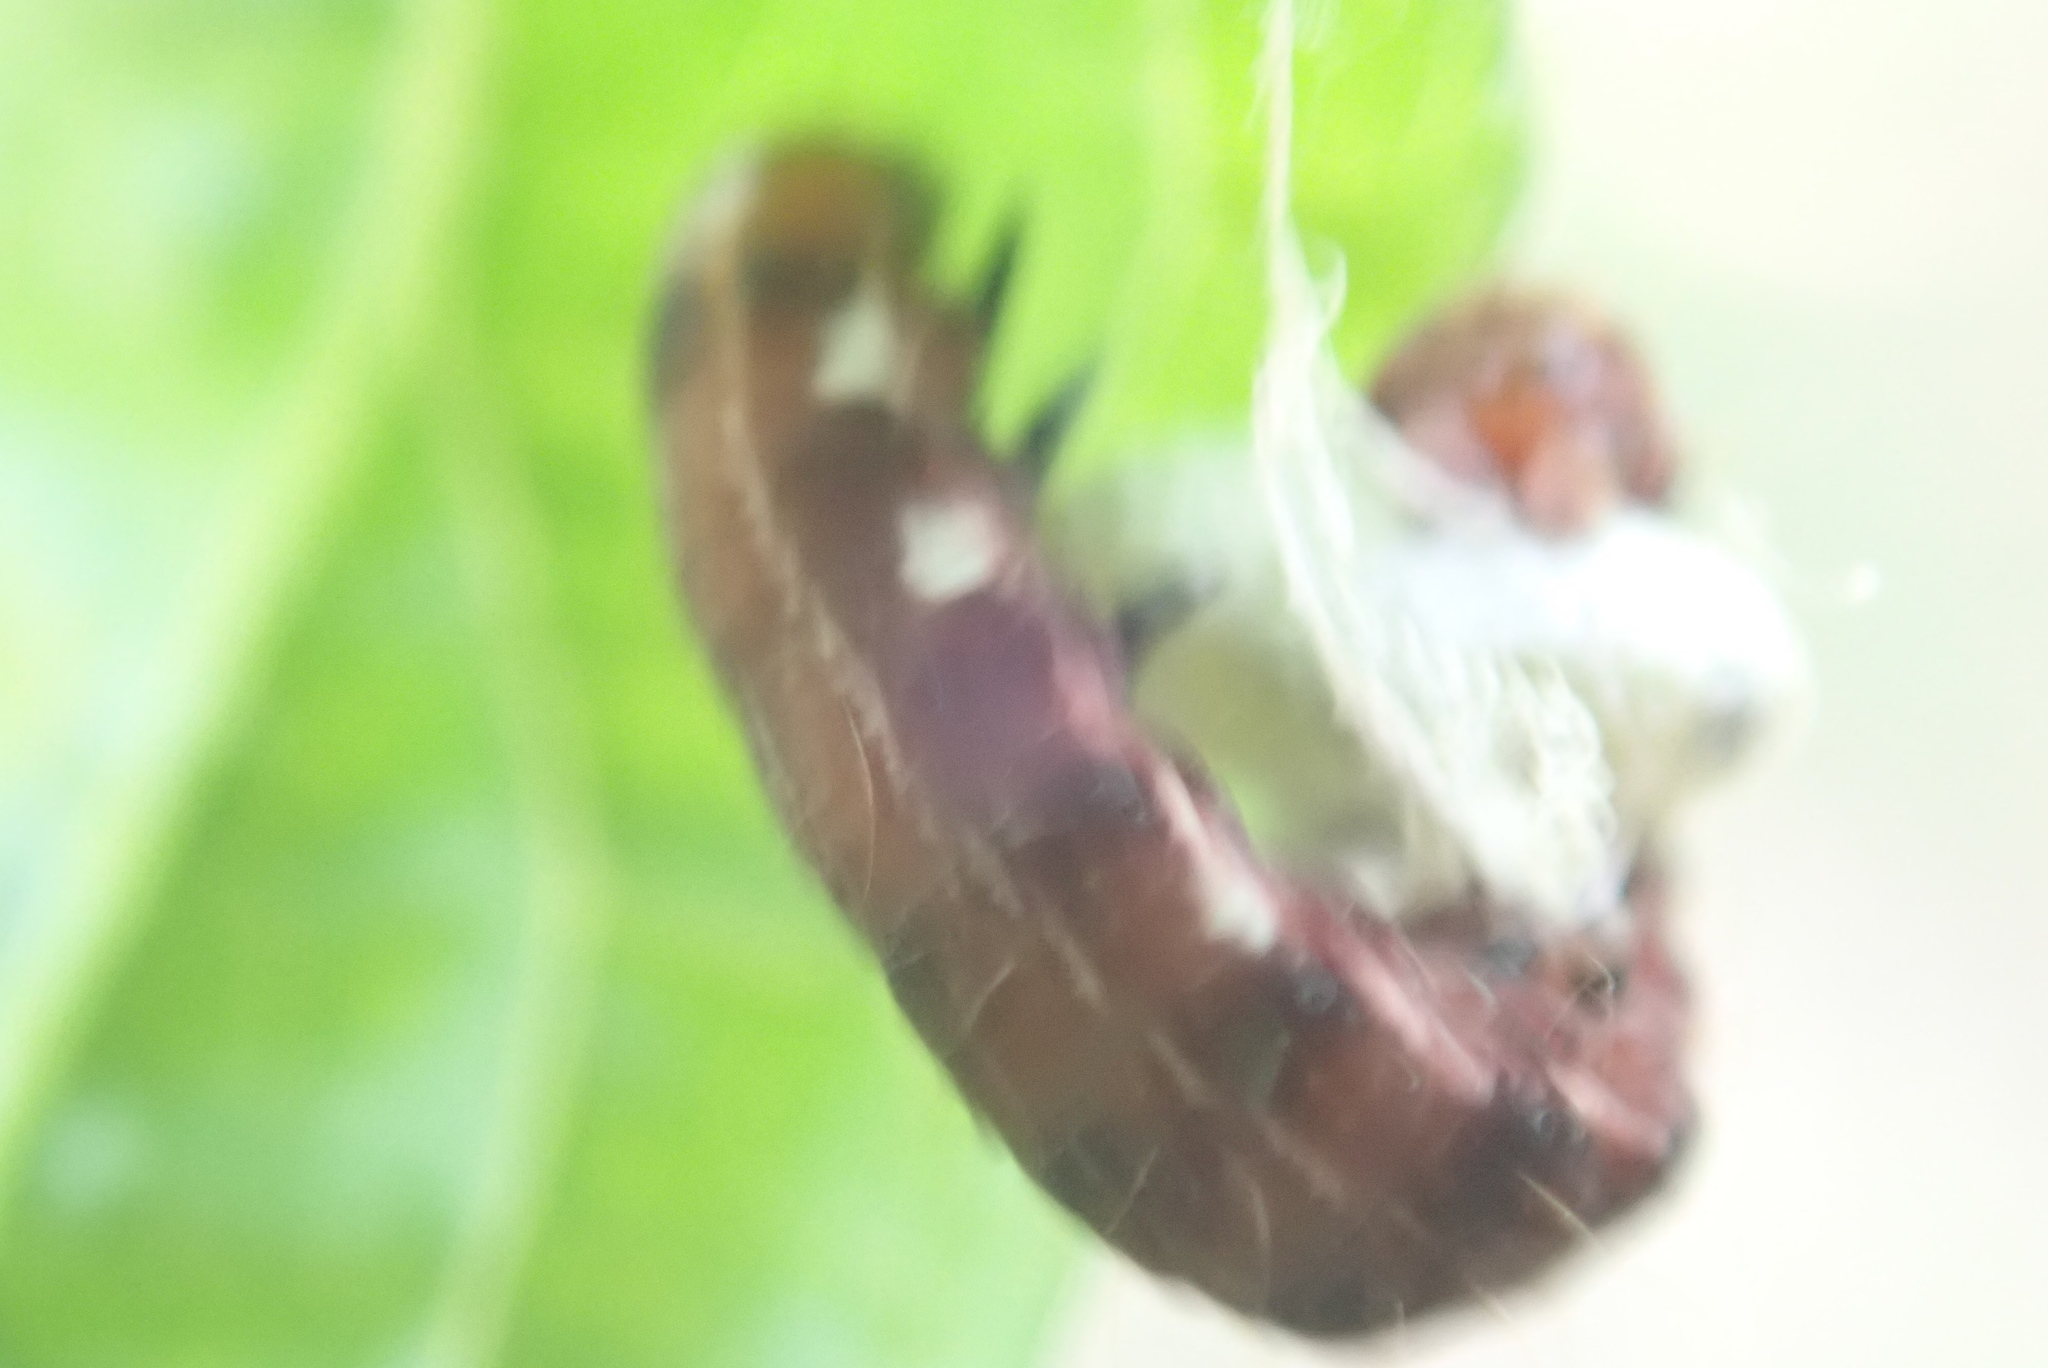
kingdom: Animalia
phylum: Arthropoda
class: Insecta
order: Lepidoptera
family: Noctuidae
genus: Eupsilia
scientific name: Eupsilia transversa
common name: Satellite
